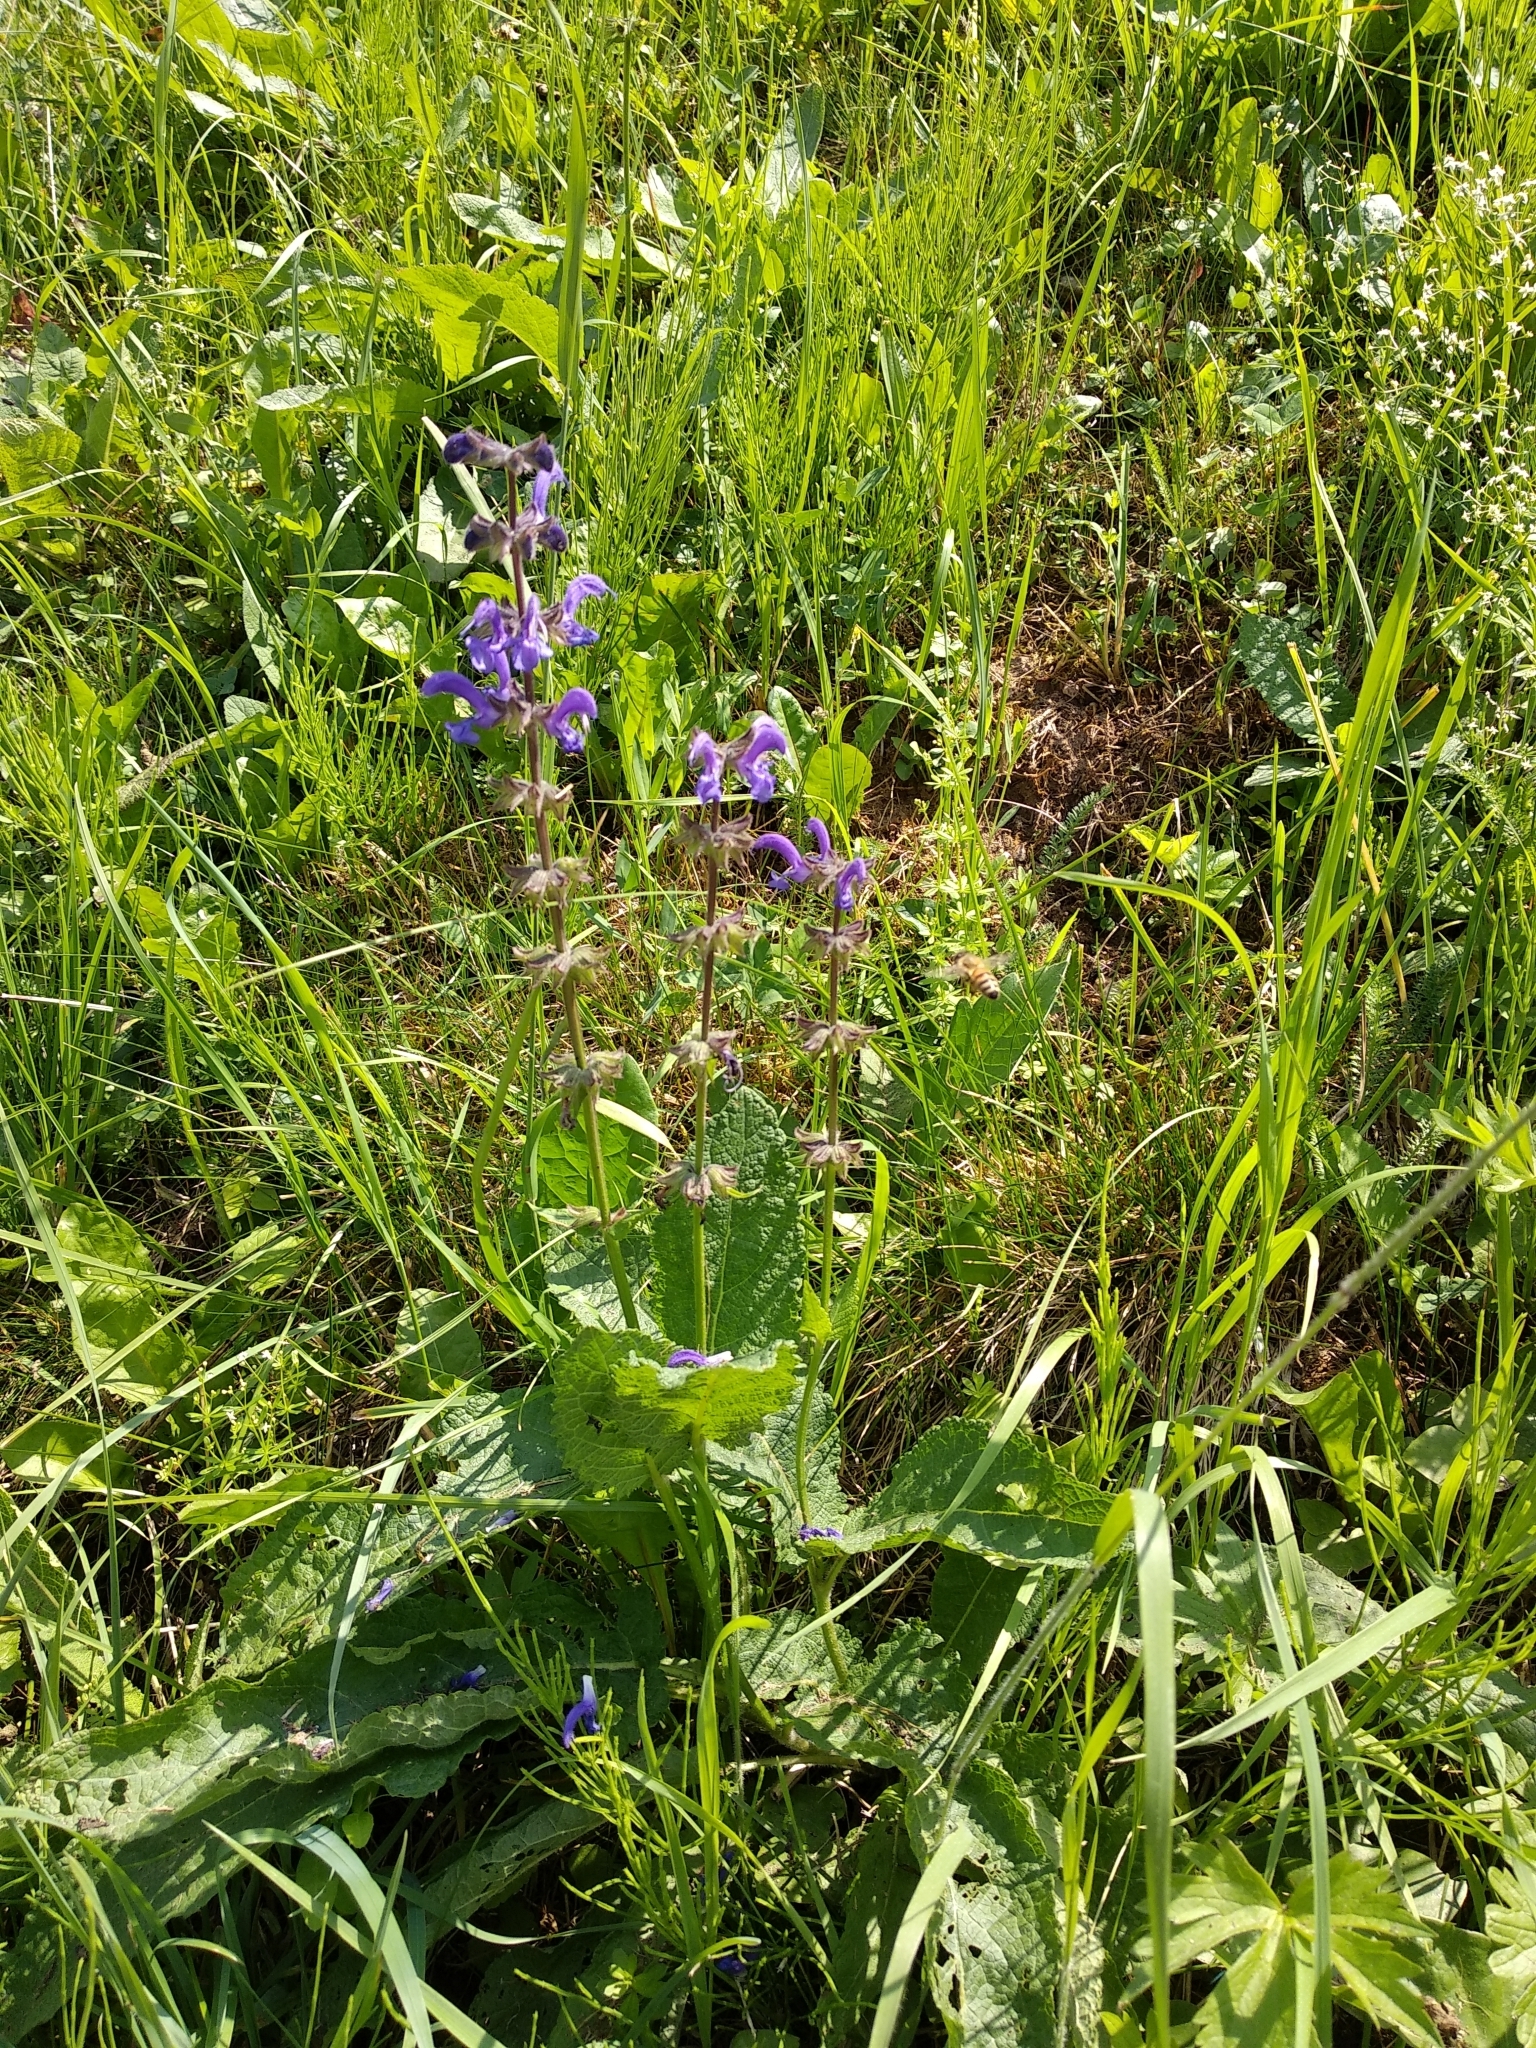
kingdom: Plantae
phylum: Tracheophyta
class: Magnoliopsida
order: Lamiales
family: Lamiaceae
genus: Salvia
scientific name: Salvia pratensis
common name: Meadow sage
